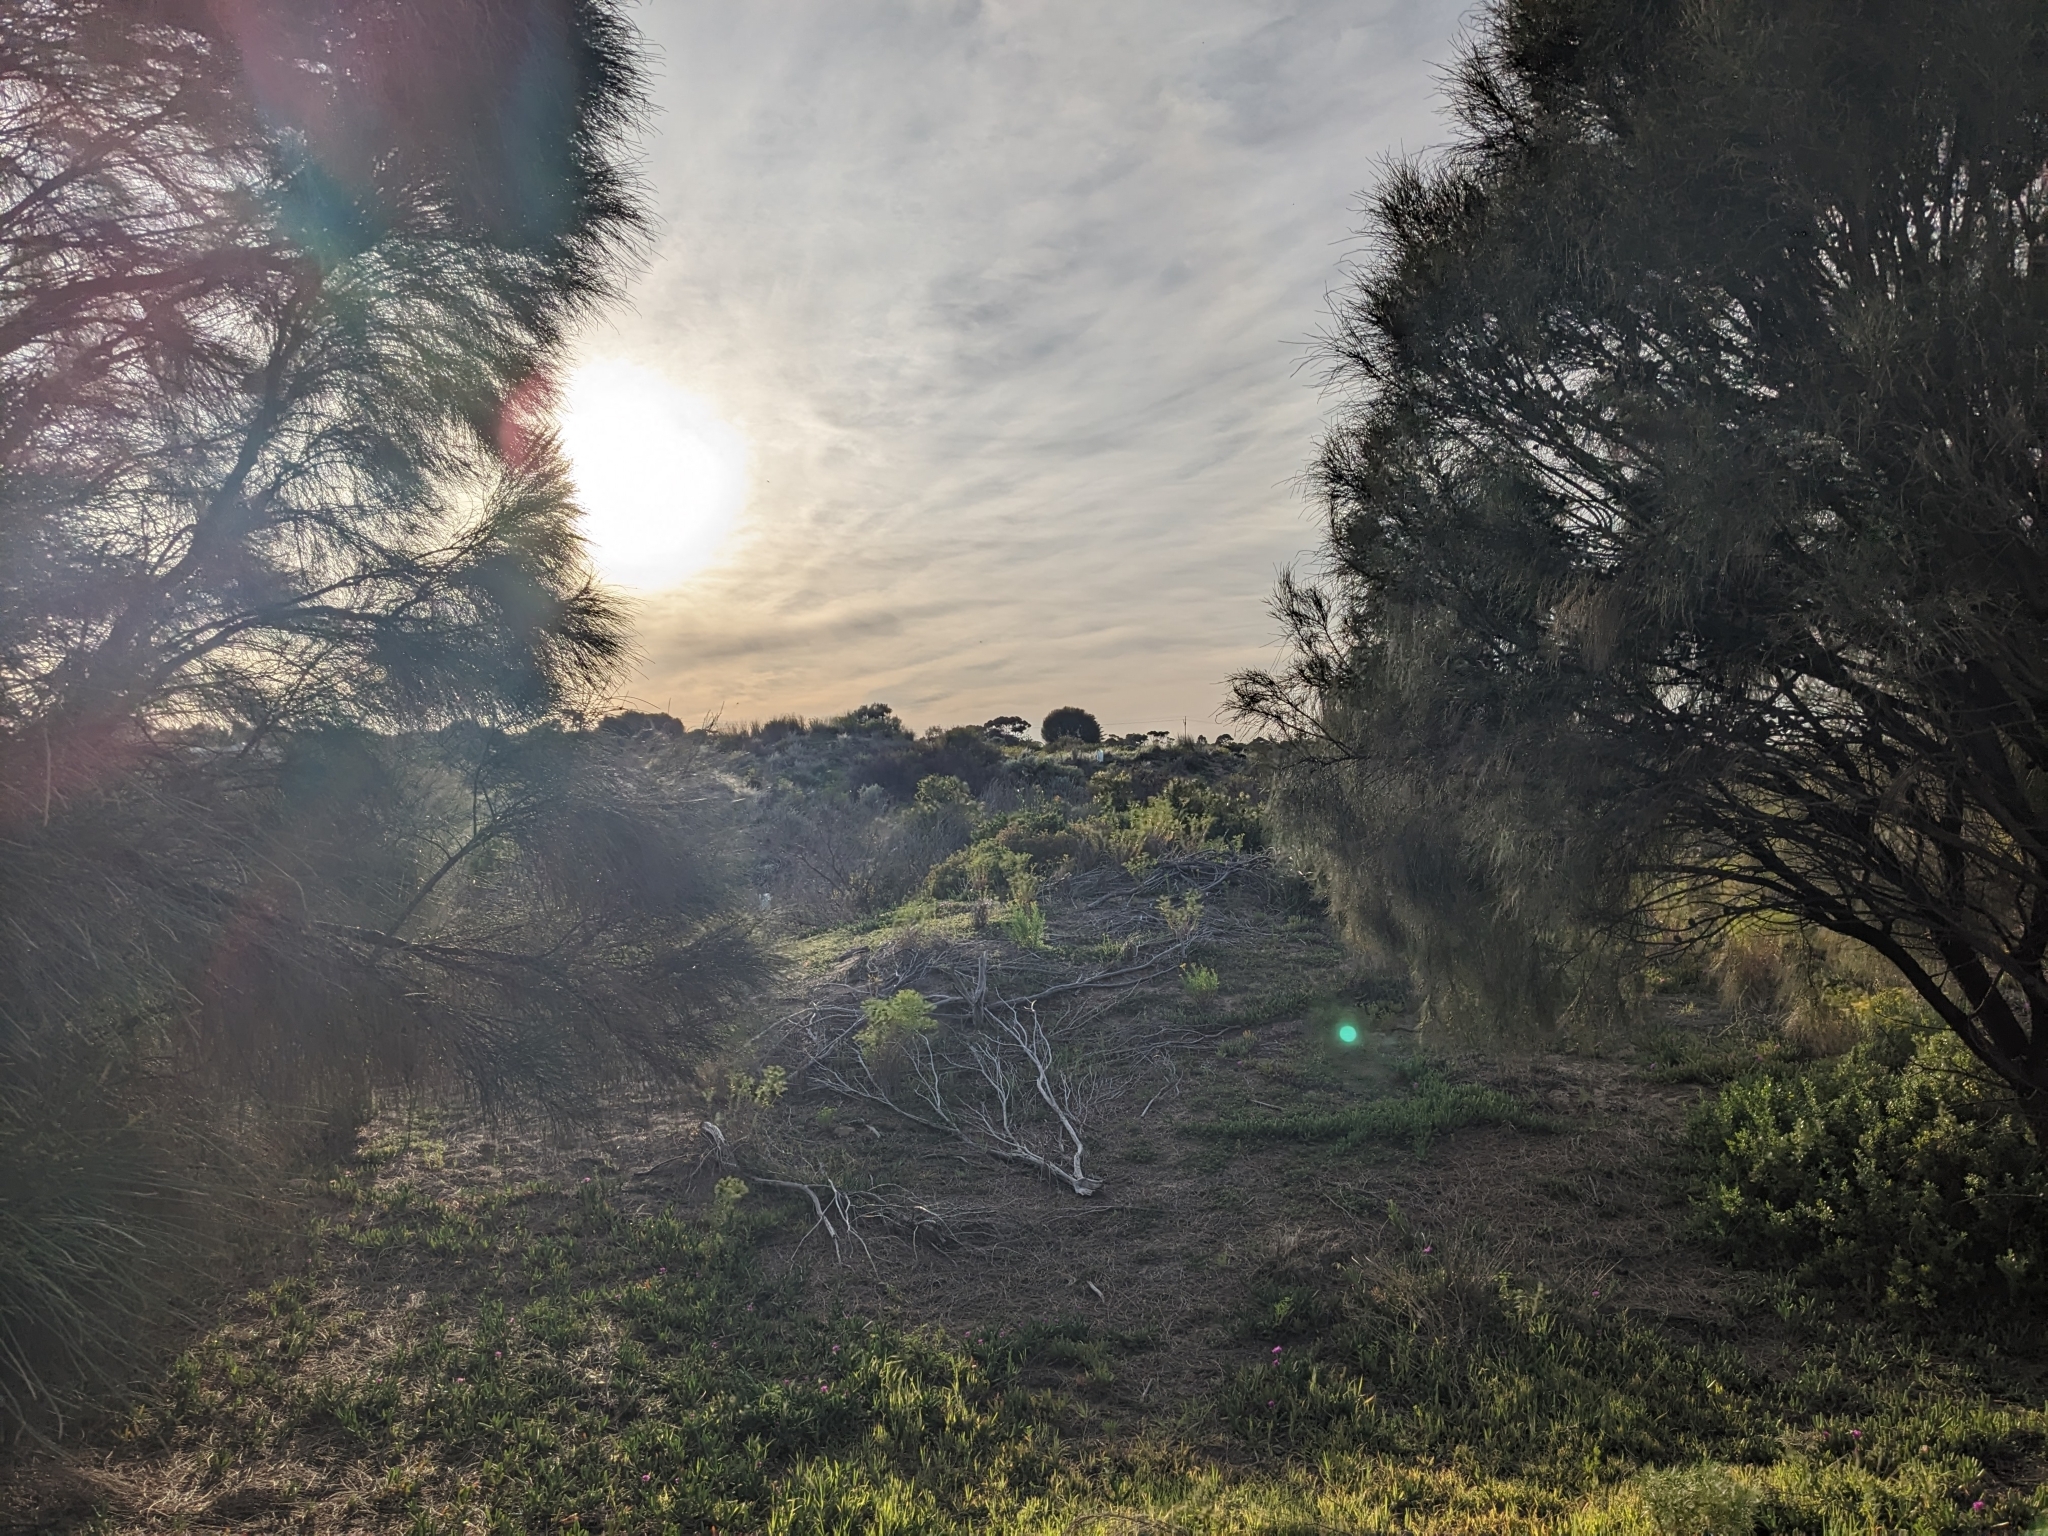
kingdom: Animalia
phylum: Chordata
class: Aves
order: Passeriformes
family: Meliphagidae
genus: Anthochaera
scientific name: Anthochaera carunculata
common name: Red wattlebird
